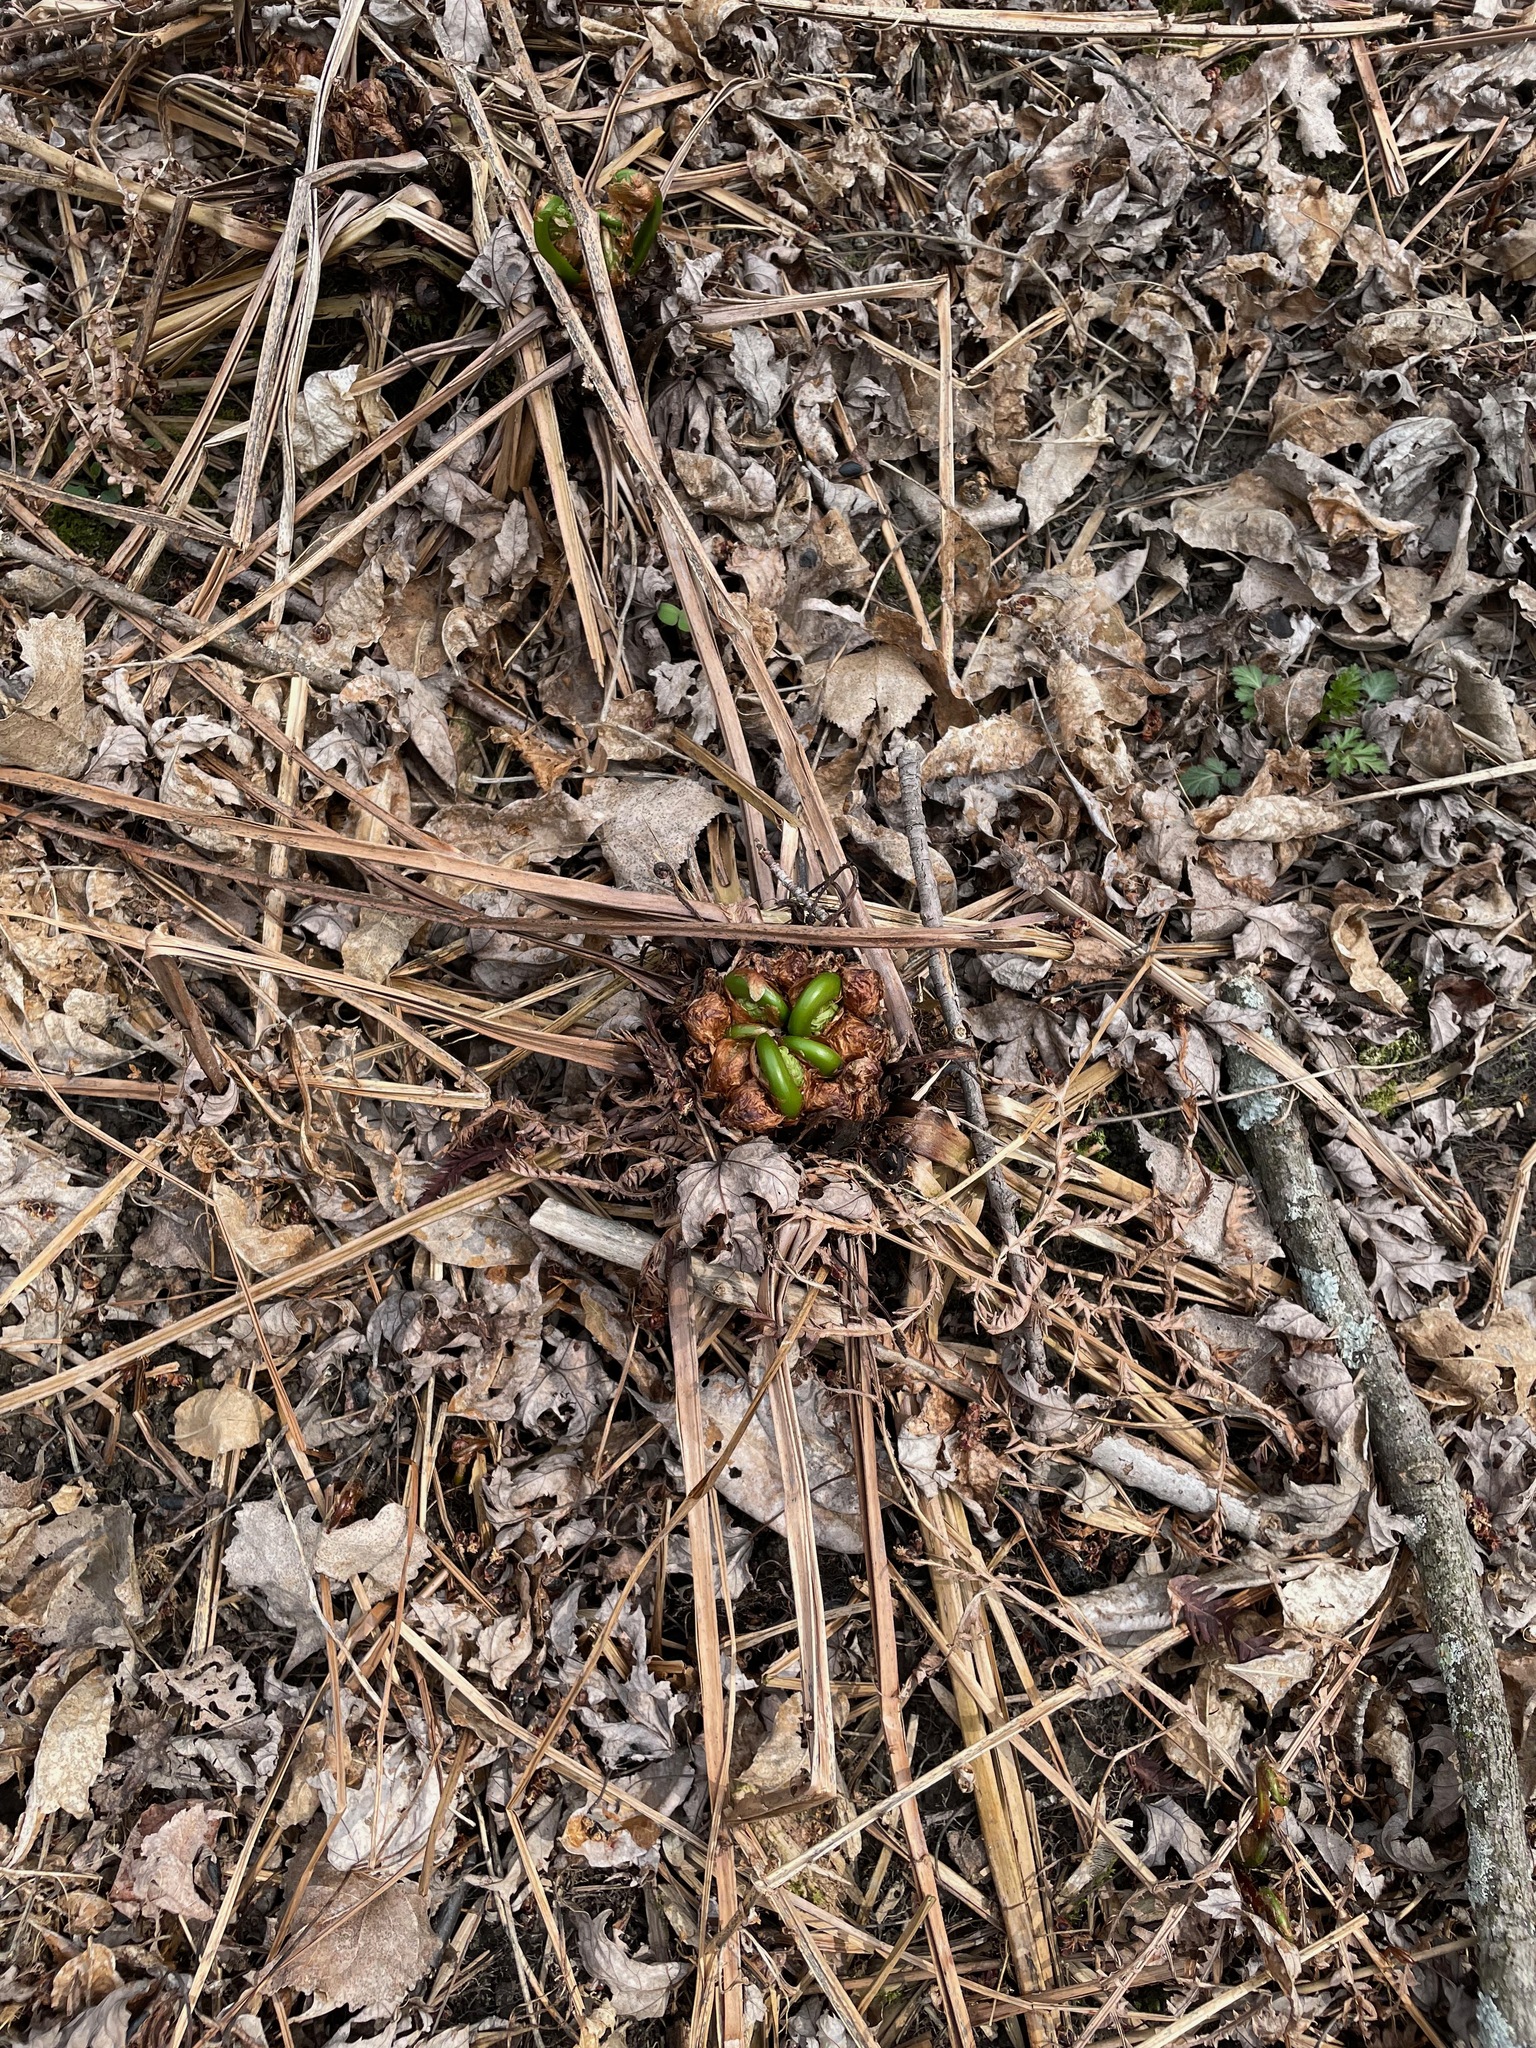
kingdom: Plantae
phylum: Tracheophyta
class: Polypodiopsida
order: Polypodiales
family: Onocleaceae
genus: Matteuccia
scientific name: Matteuccia struthiopteris
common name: Ostrich fern
